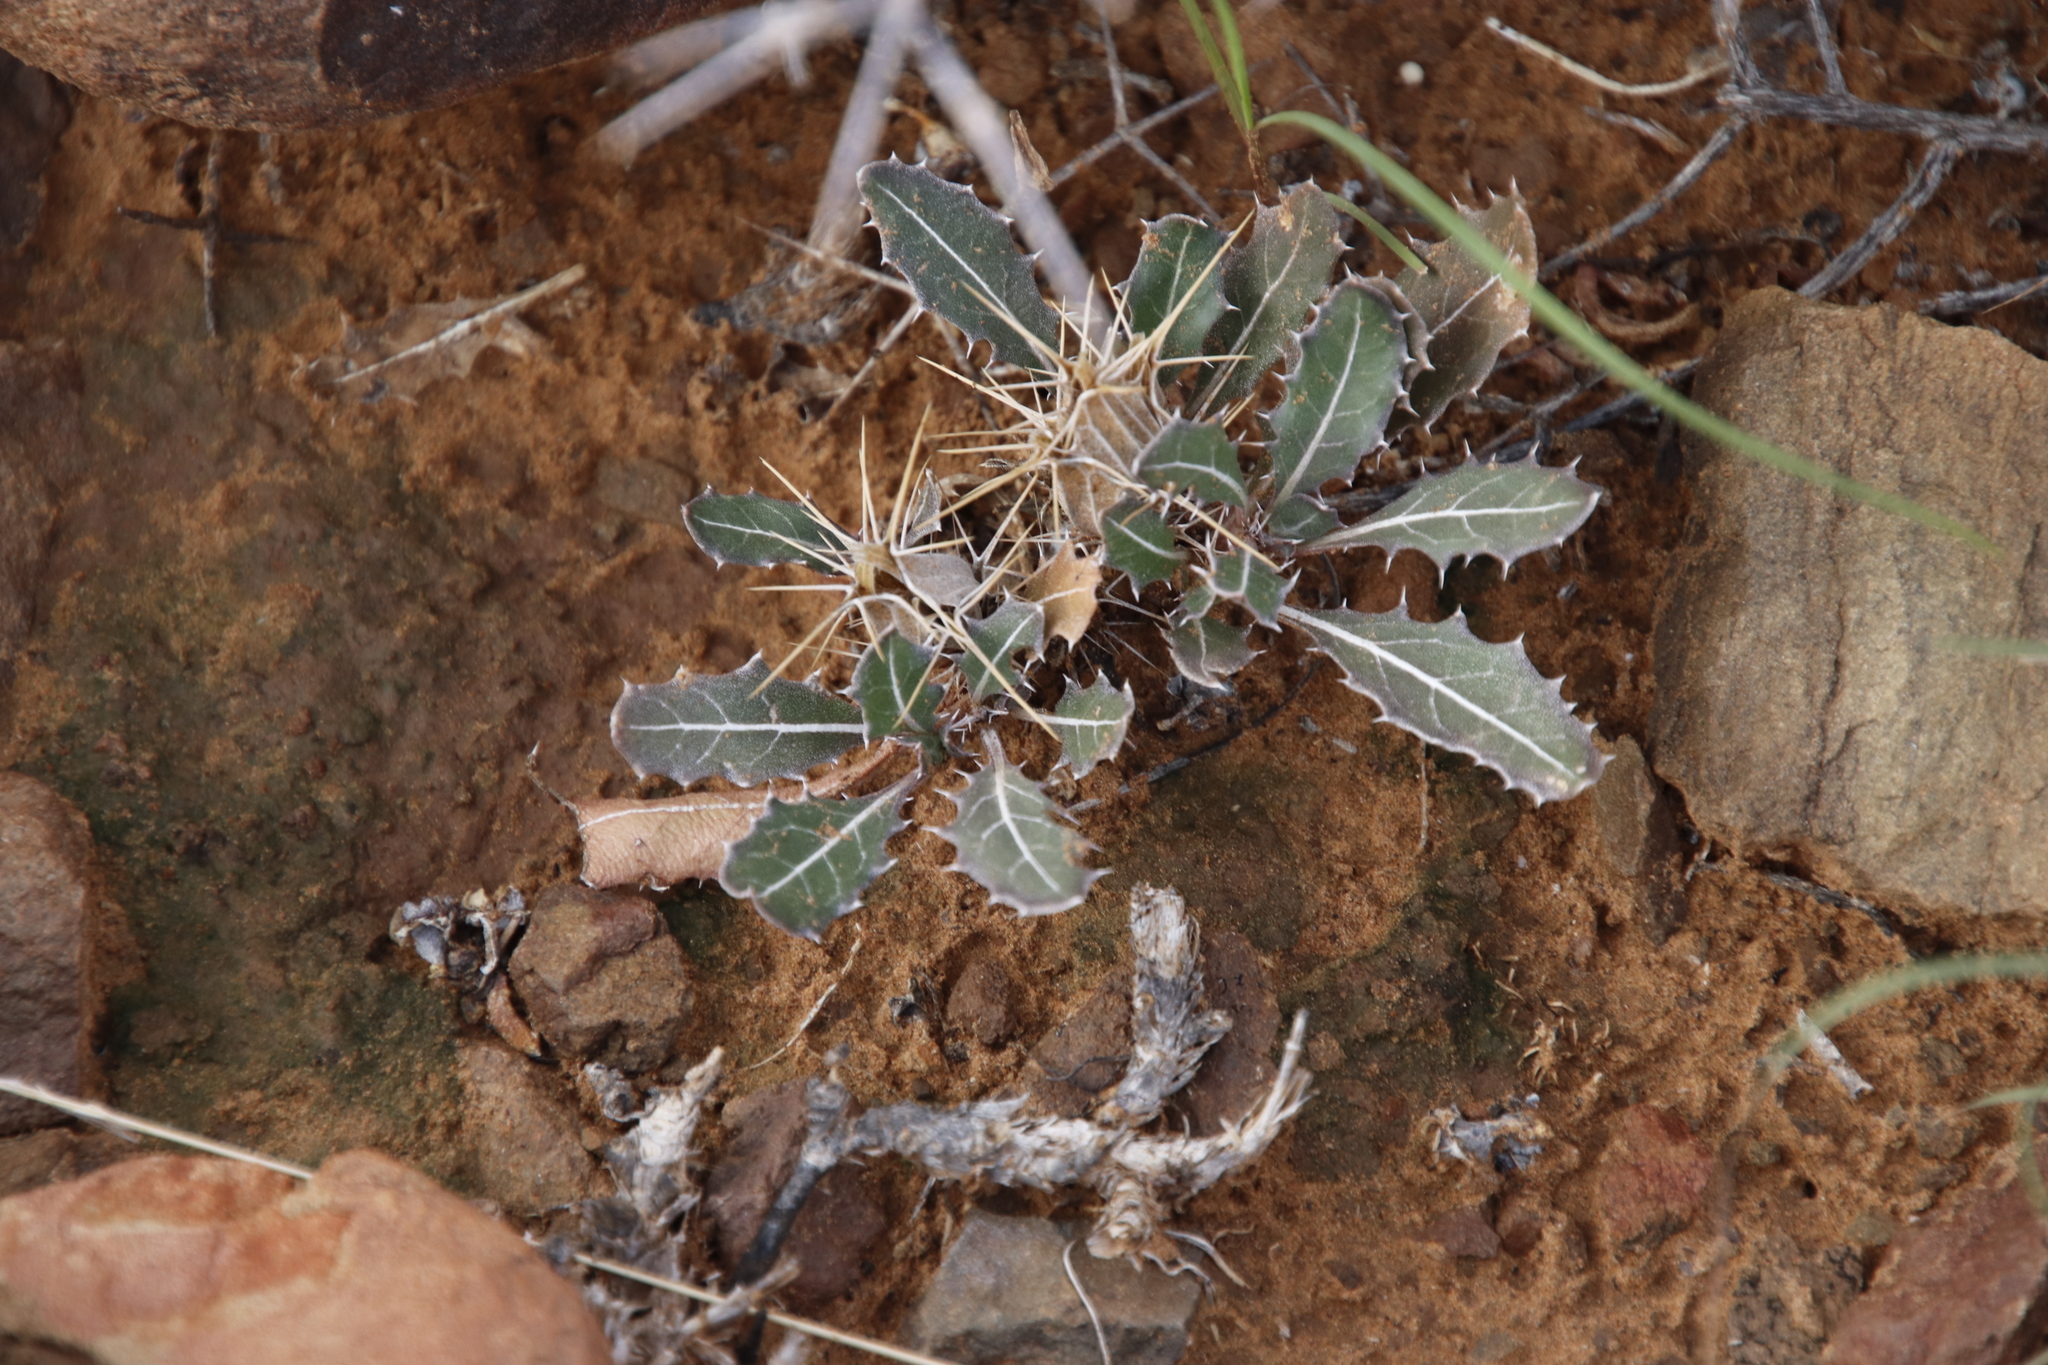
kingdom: Plantae
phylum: Tracheophyta
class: Magnoliopsida
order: Lamiales
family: Acanthaceae
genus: Blepharis
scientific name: Blepharis mitrata
